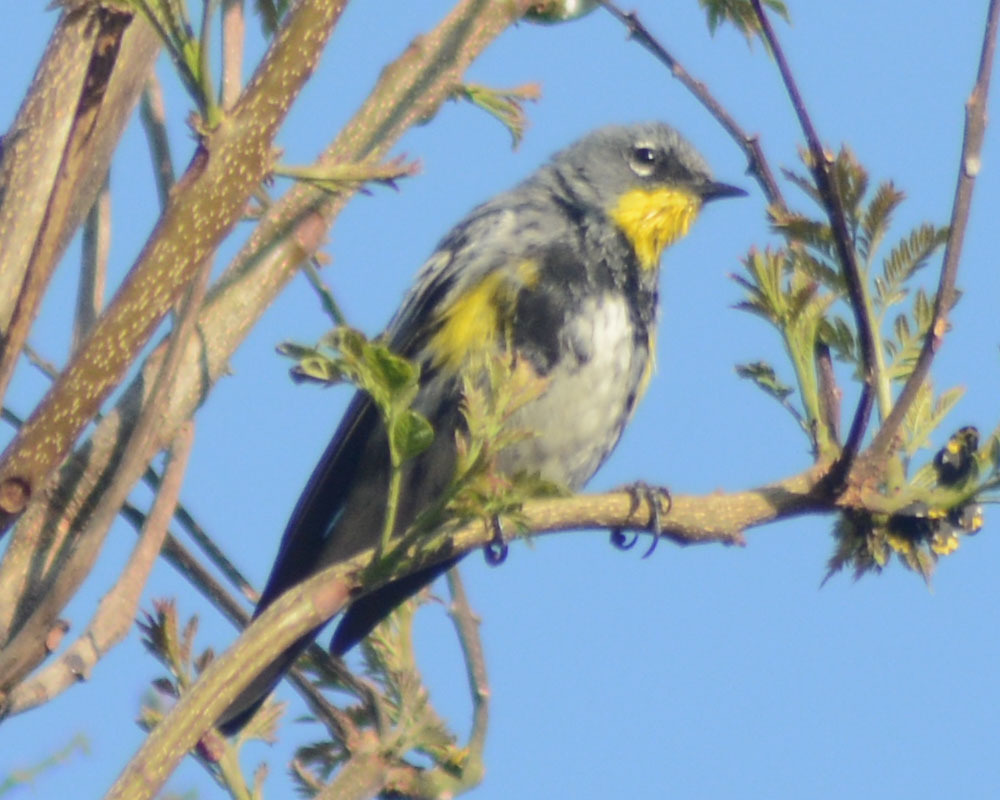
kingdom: Animalia
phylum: Chordata
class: Aves
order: Passeriformes
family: Parulidae
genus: Setophaga
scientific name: Setophaga auduboni
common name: Audubon's warbler
